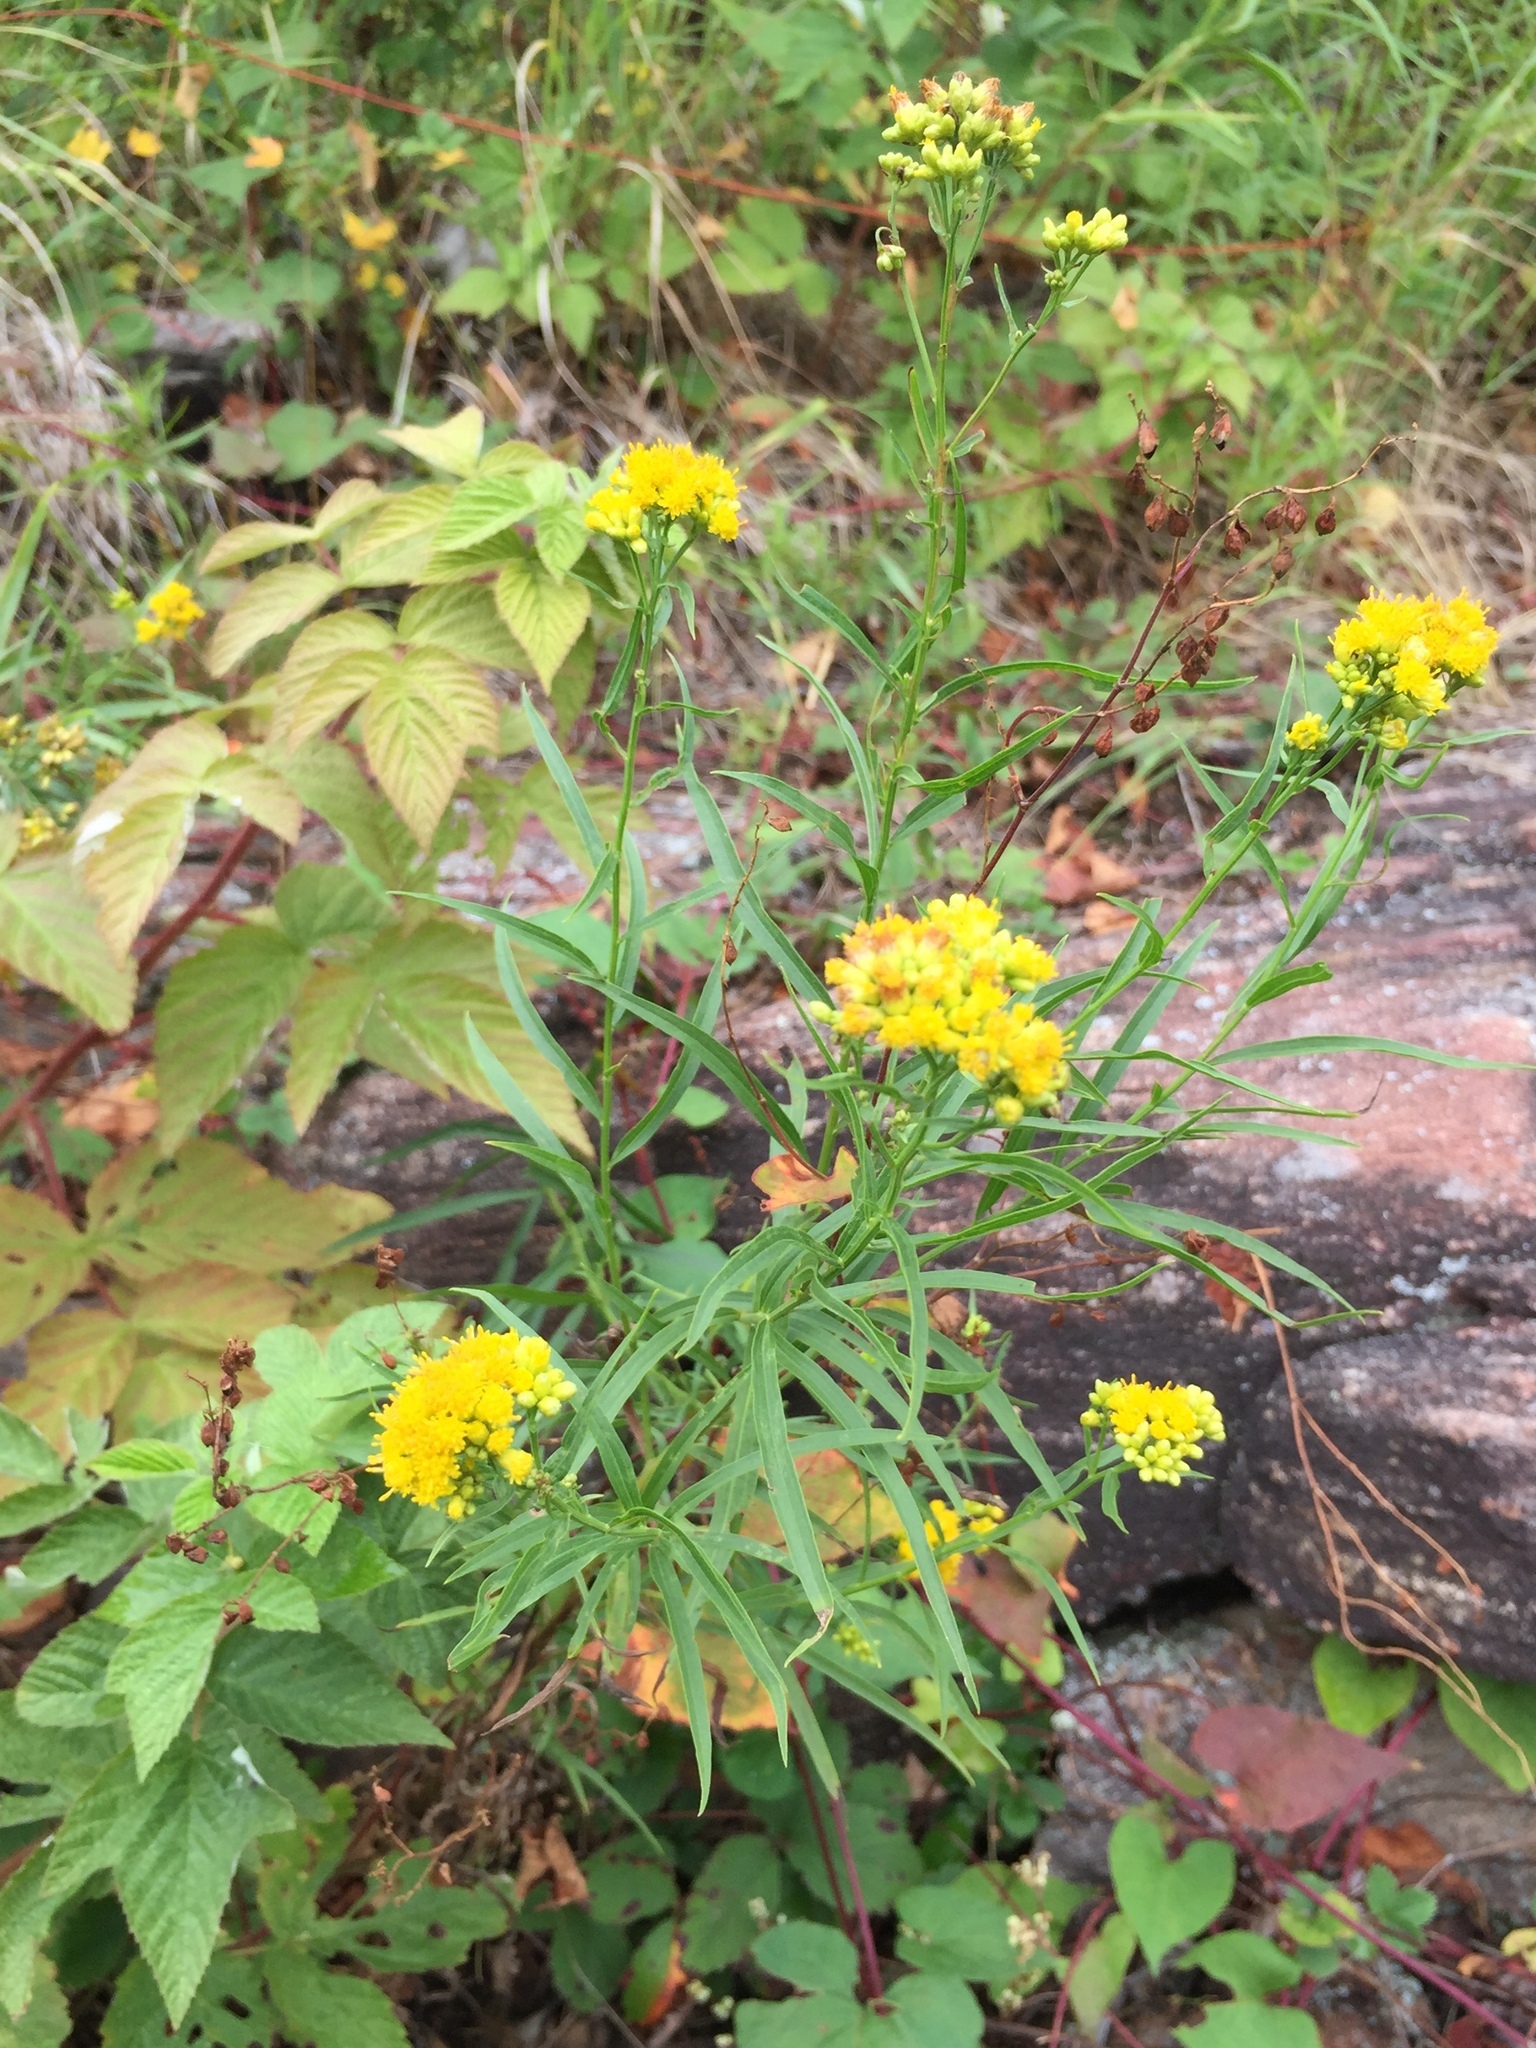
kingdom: Plantae
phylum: Tracheophyta
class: Magnoliopsida
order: Asterales
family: Asteraceae
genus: Euthamia
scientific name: Euthamia graminifolia
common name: Common goldentop
